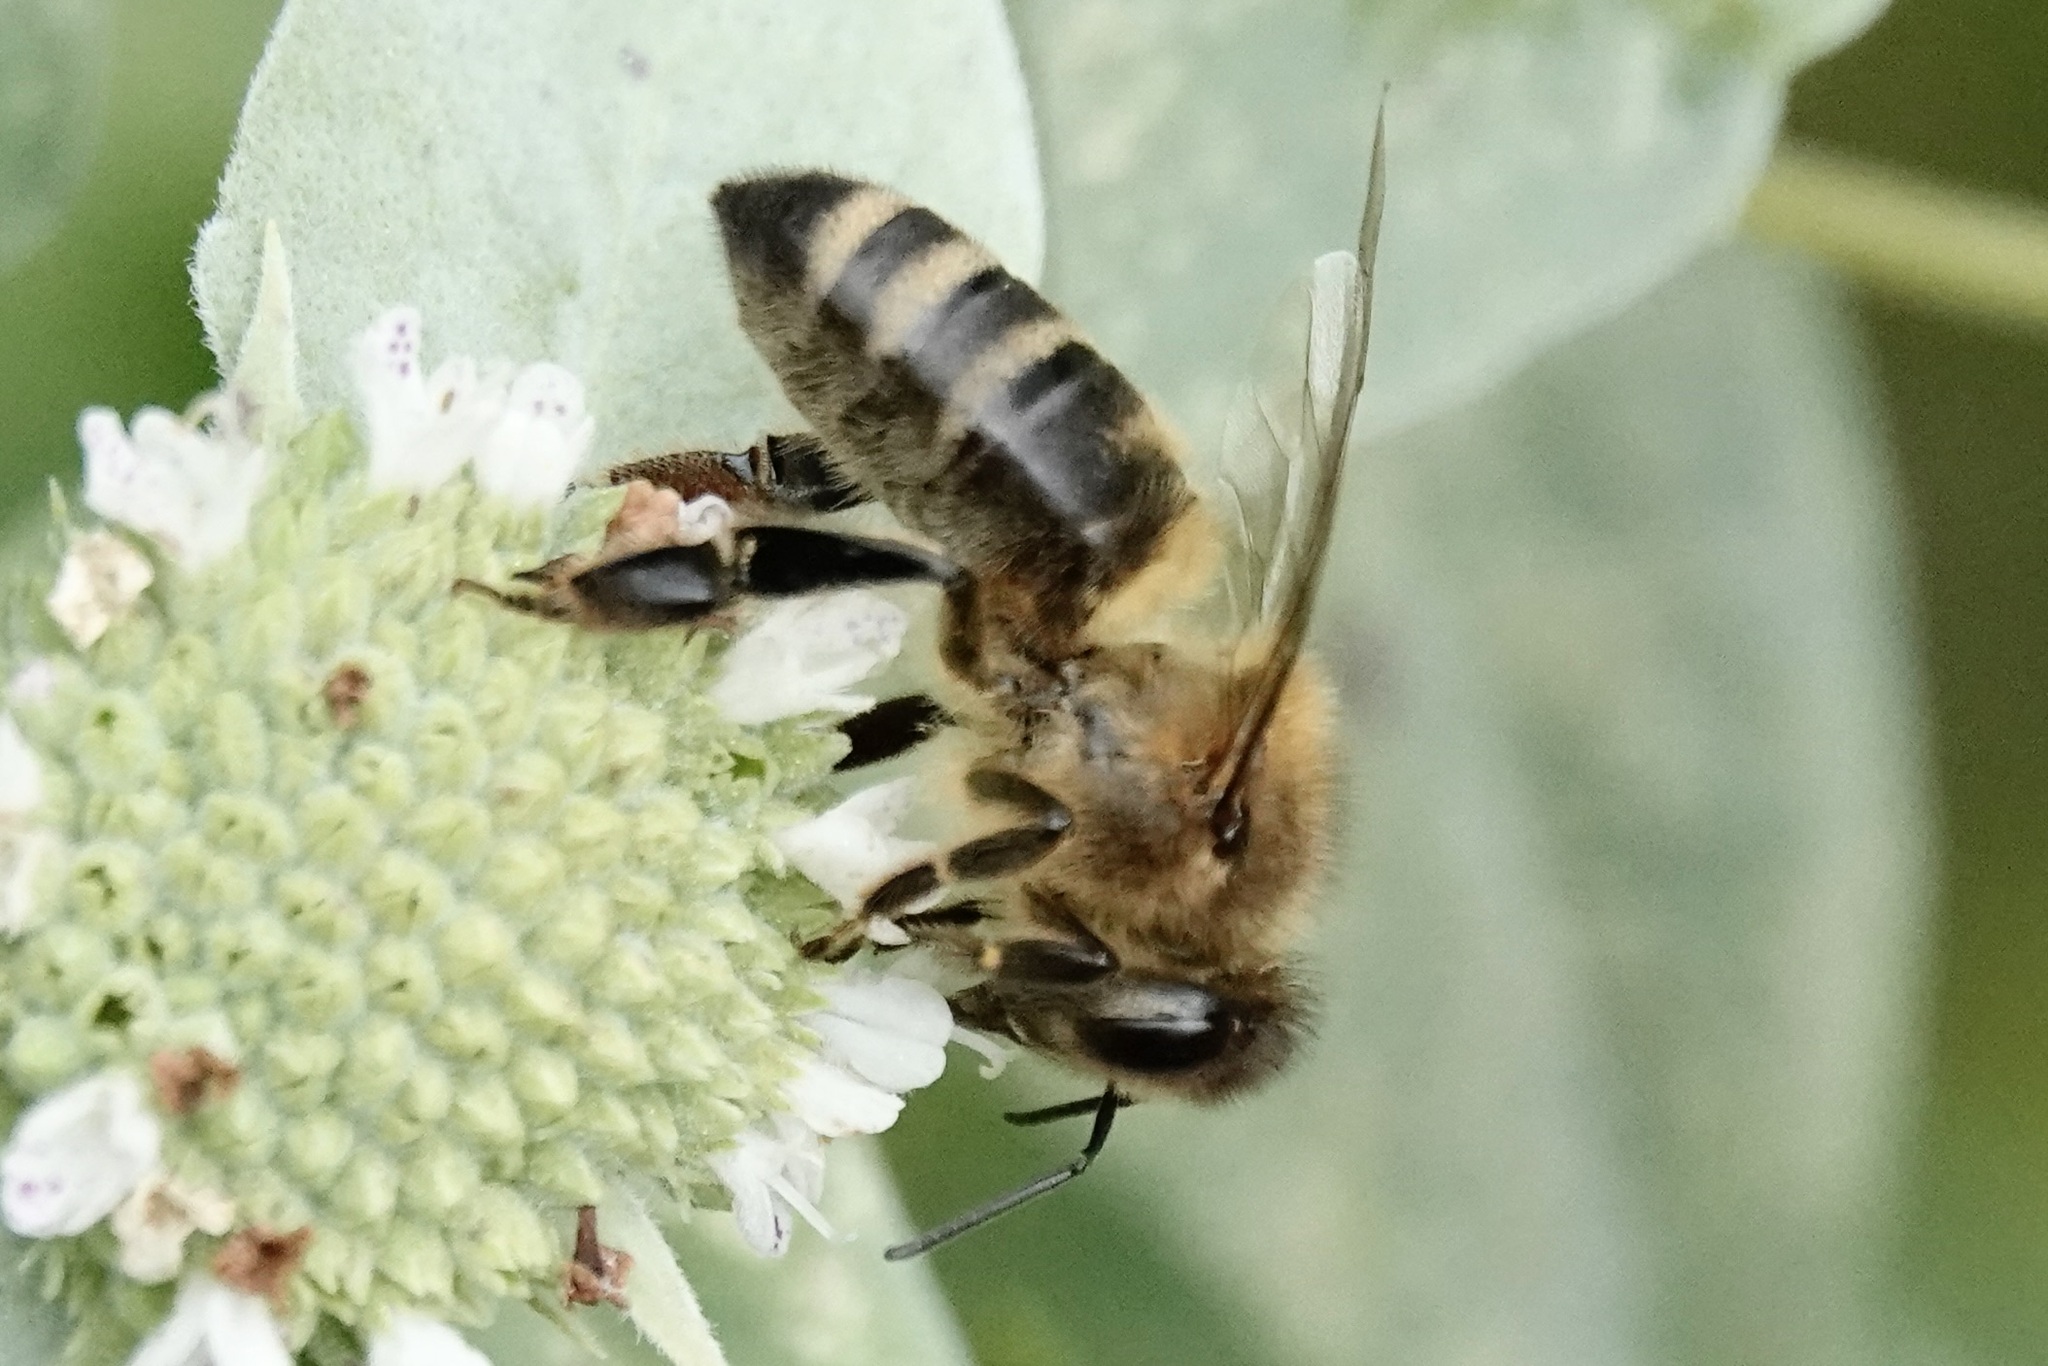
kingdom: Animalia
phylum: Arthropoda
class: Insecta
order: Hymenoptera
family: Apidae
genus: Apis
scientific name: Apis mellifera
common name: Honey bee
